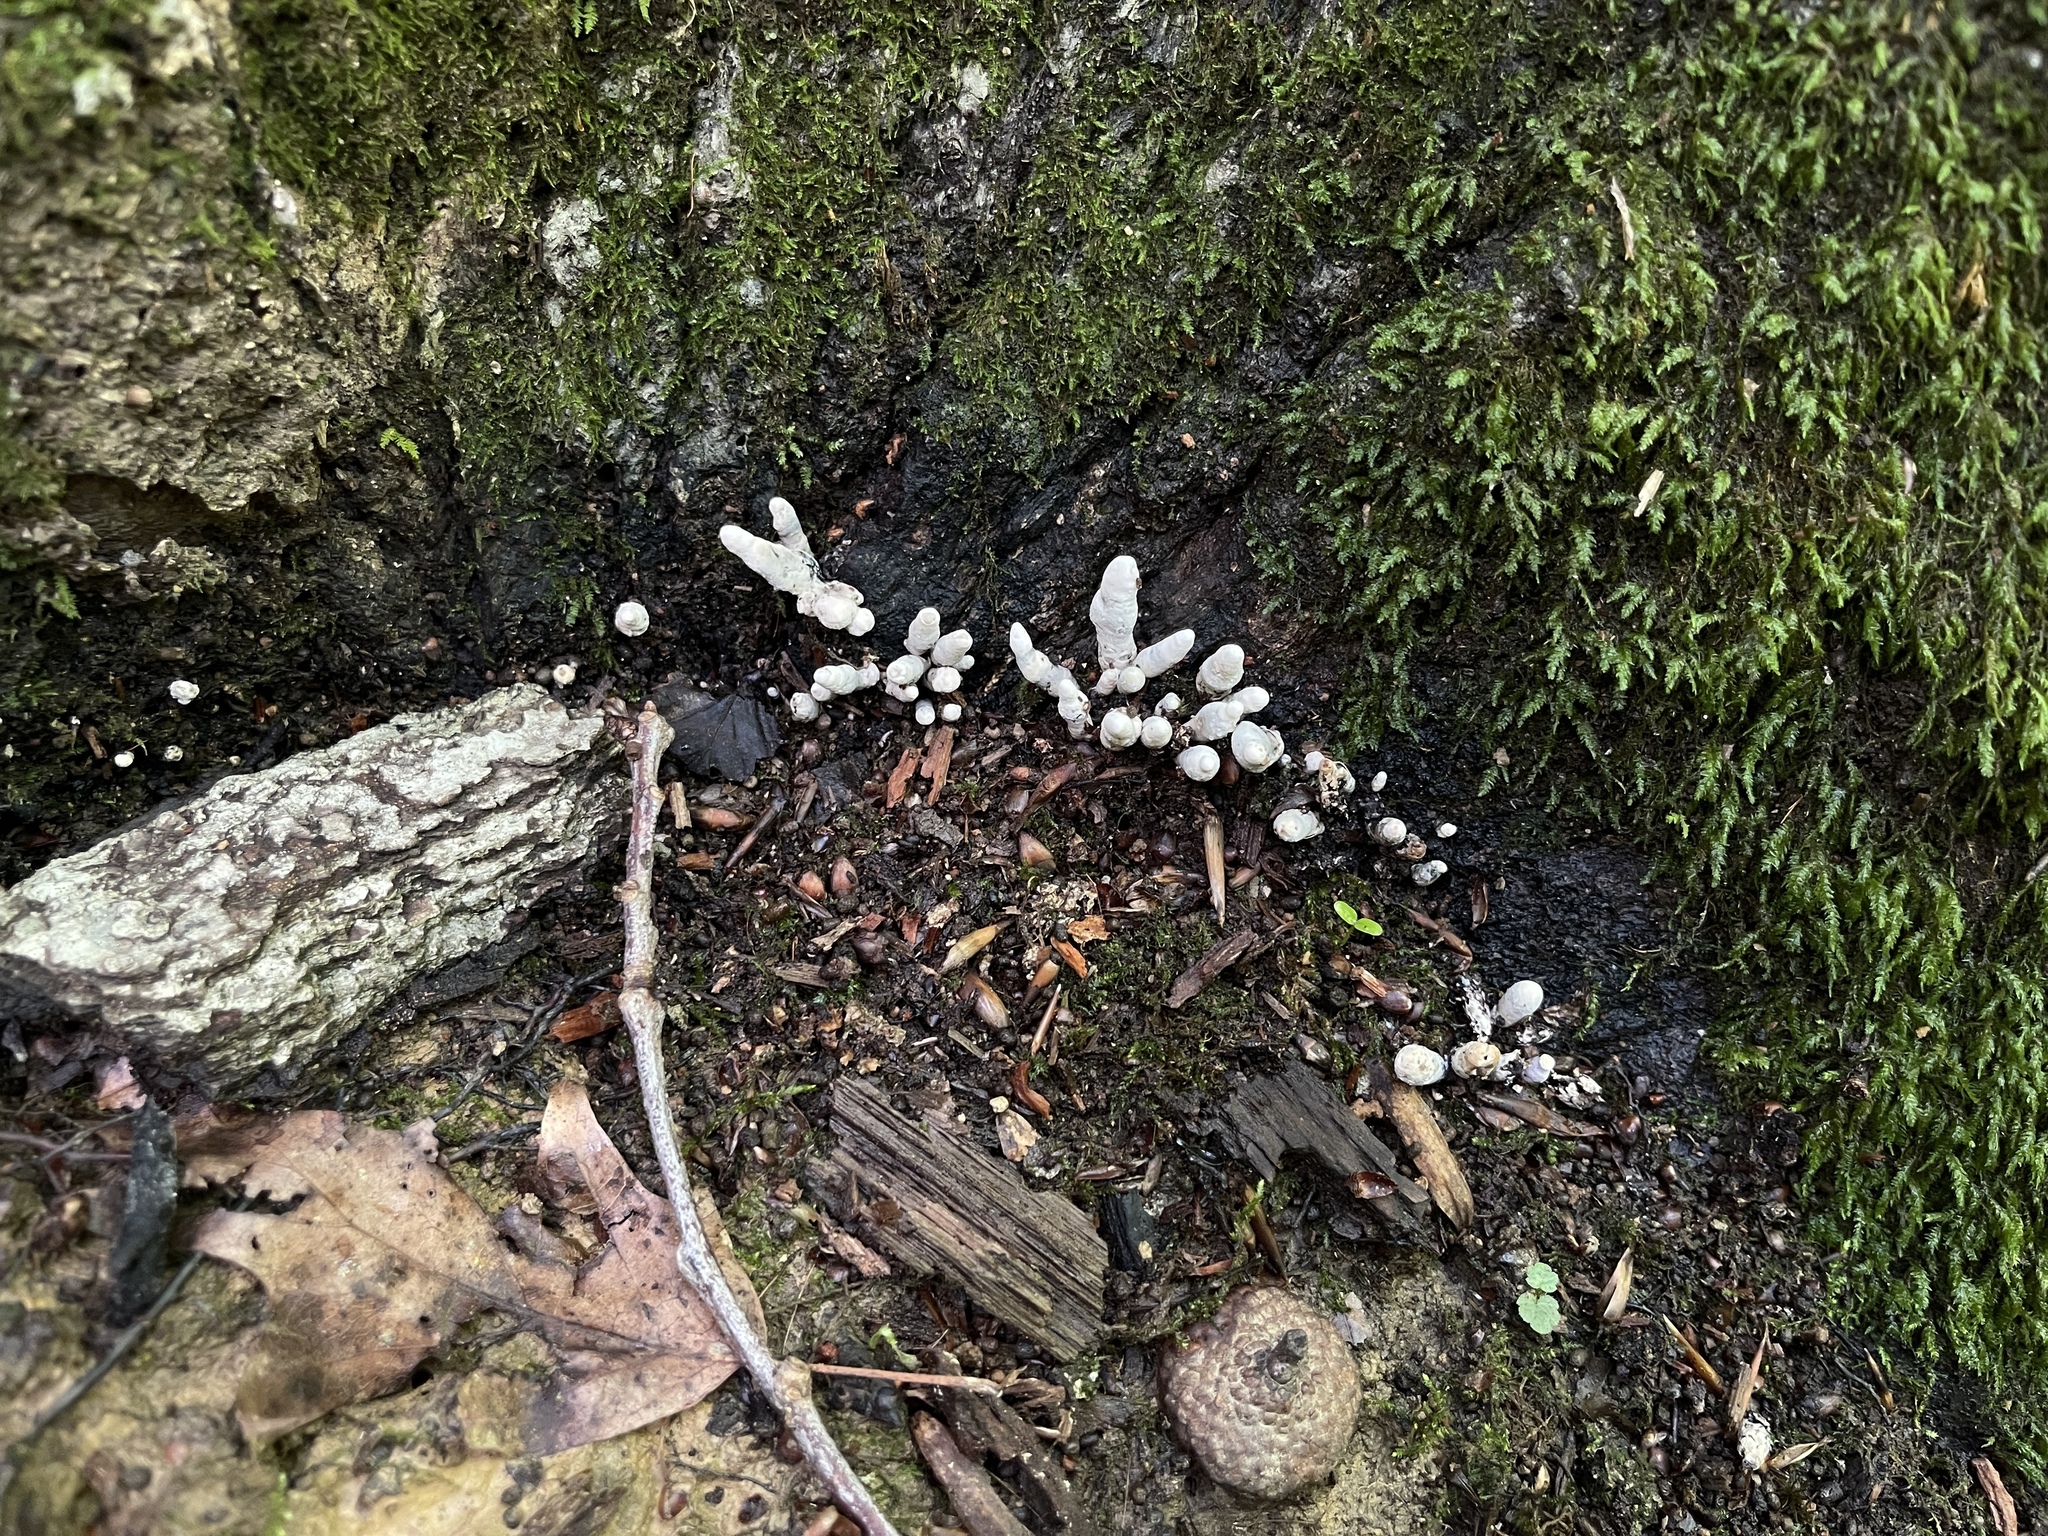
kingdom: Fungi
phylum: Ascomycota
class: Sordariomycetes
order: Xylariales
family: Xylariaceae
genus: Xylaria
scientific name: Xylaria
